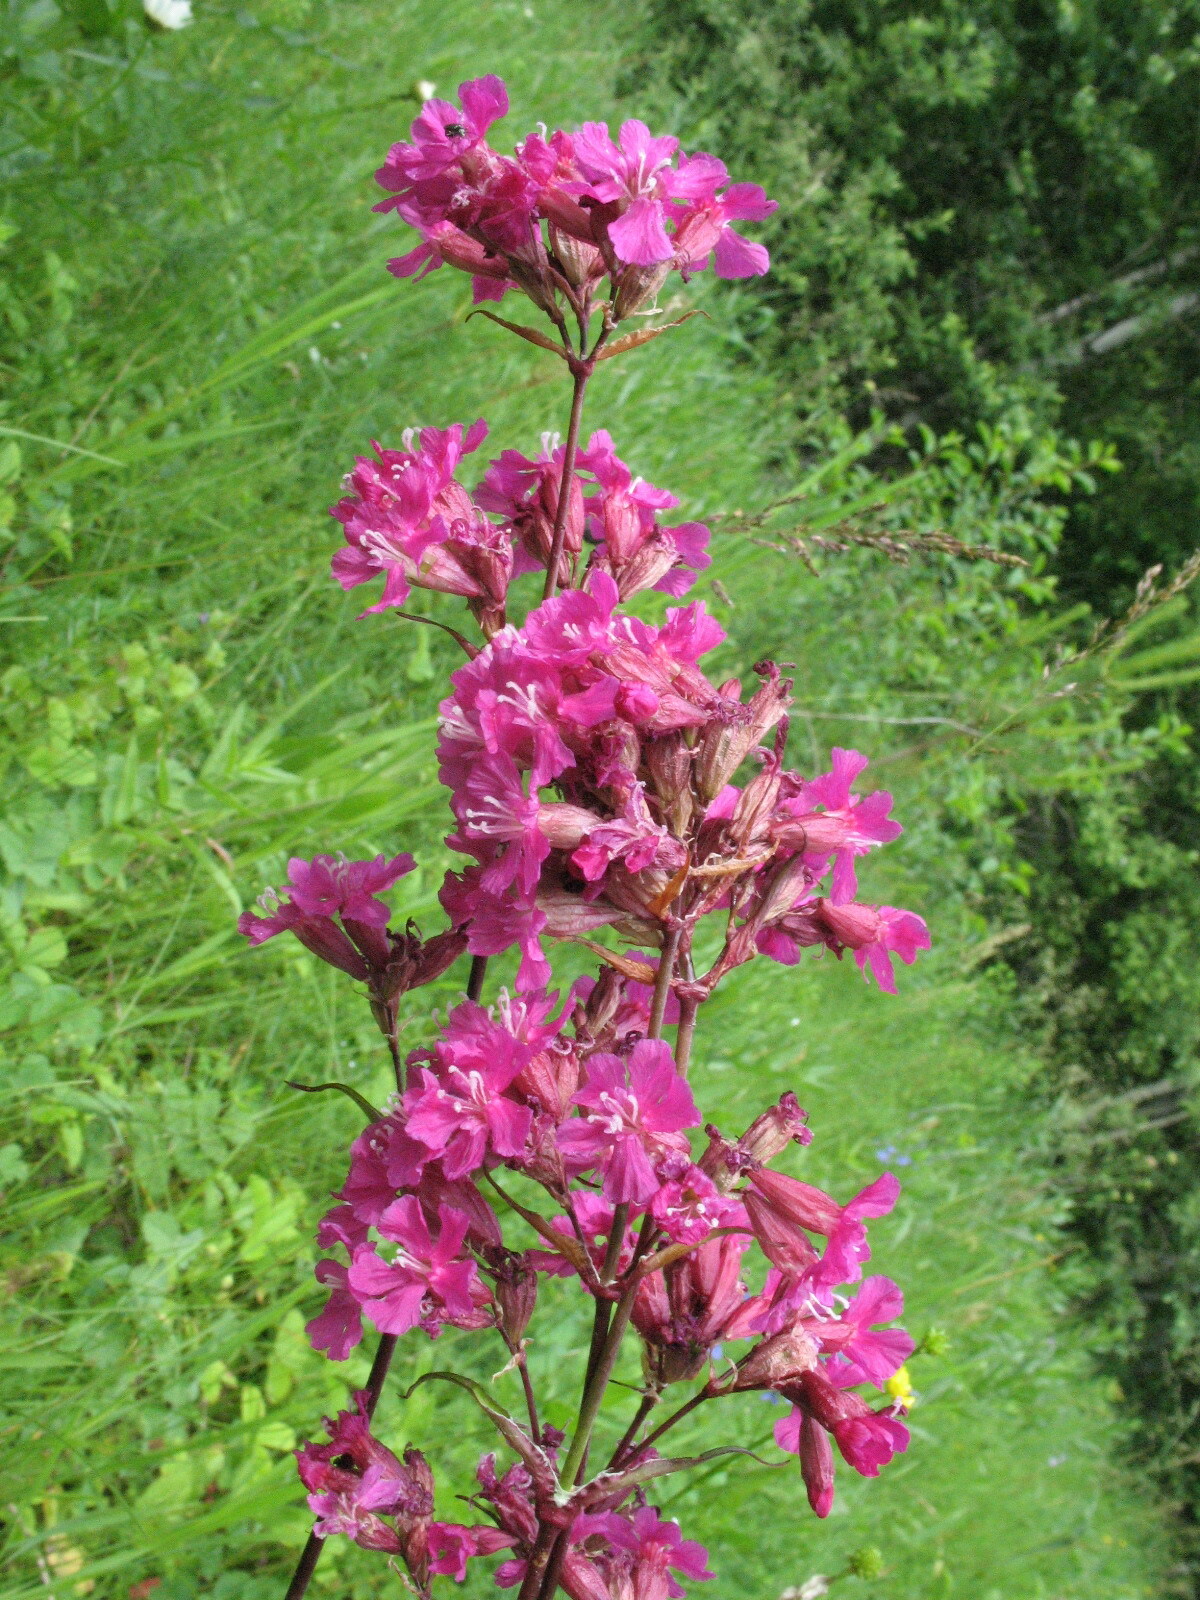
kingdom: Plantae
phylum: Tracheophyta
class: Magnoliopsida
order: Caryophyllales
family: Caryophyllaceae
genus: Viscaria
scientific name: Viscaria vulgaris
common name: Clammy campion
